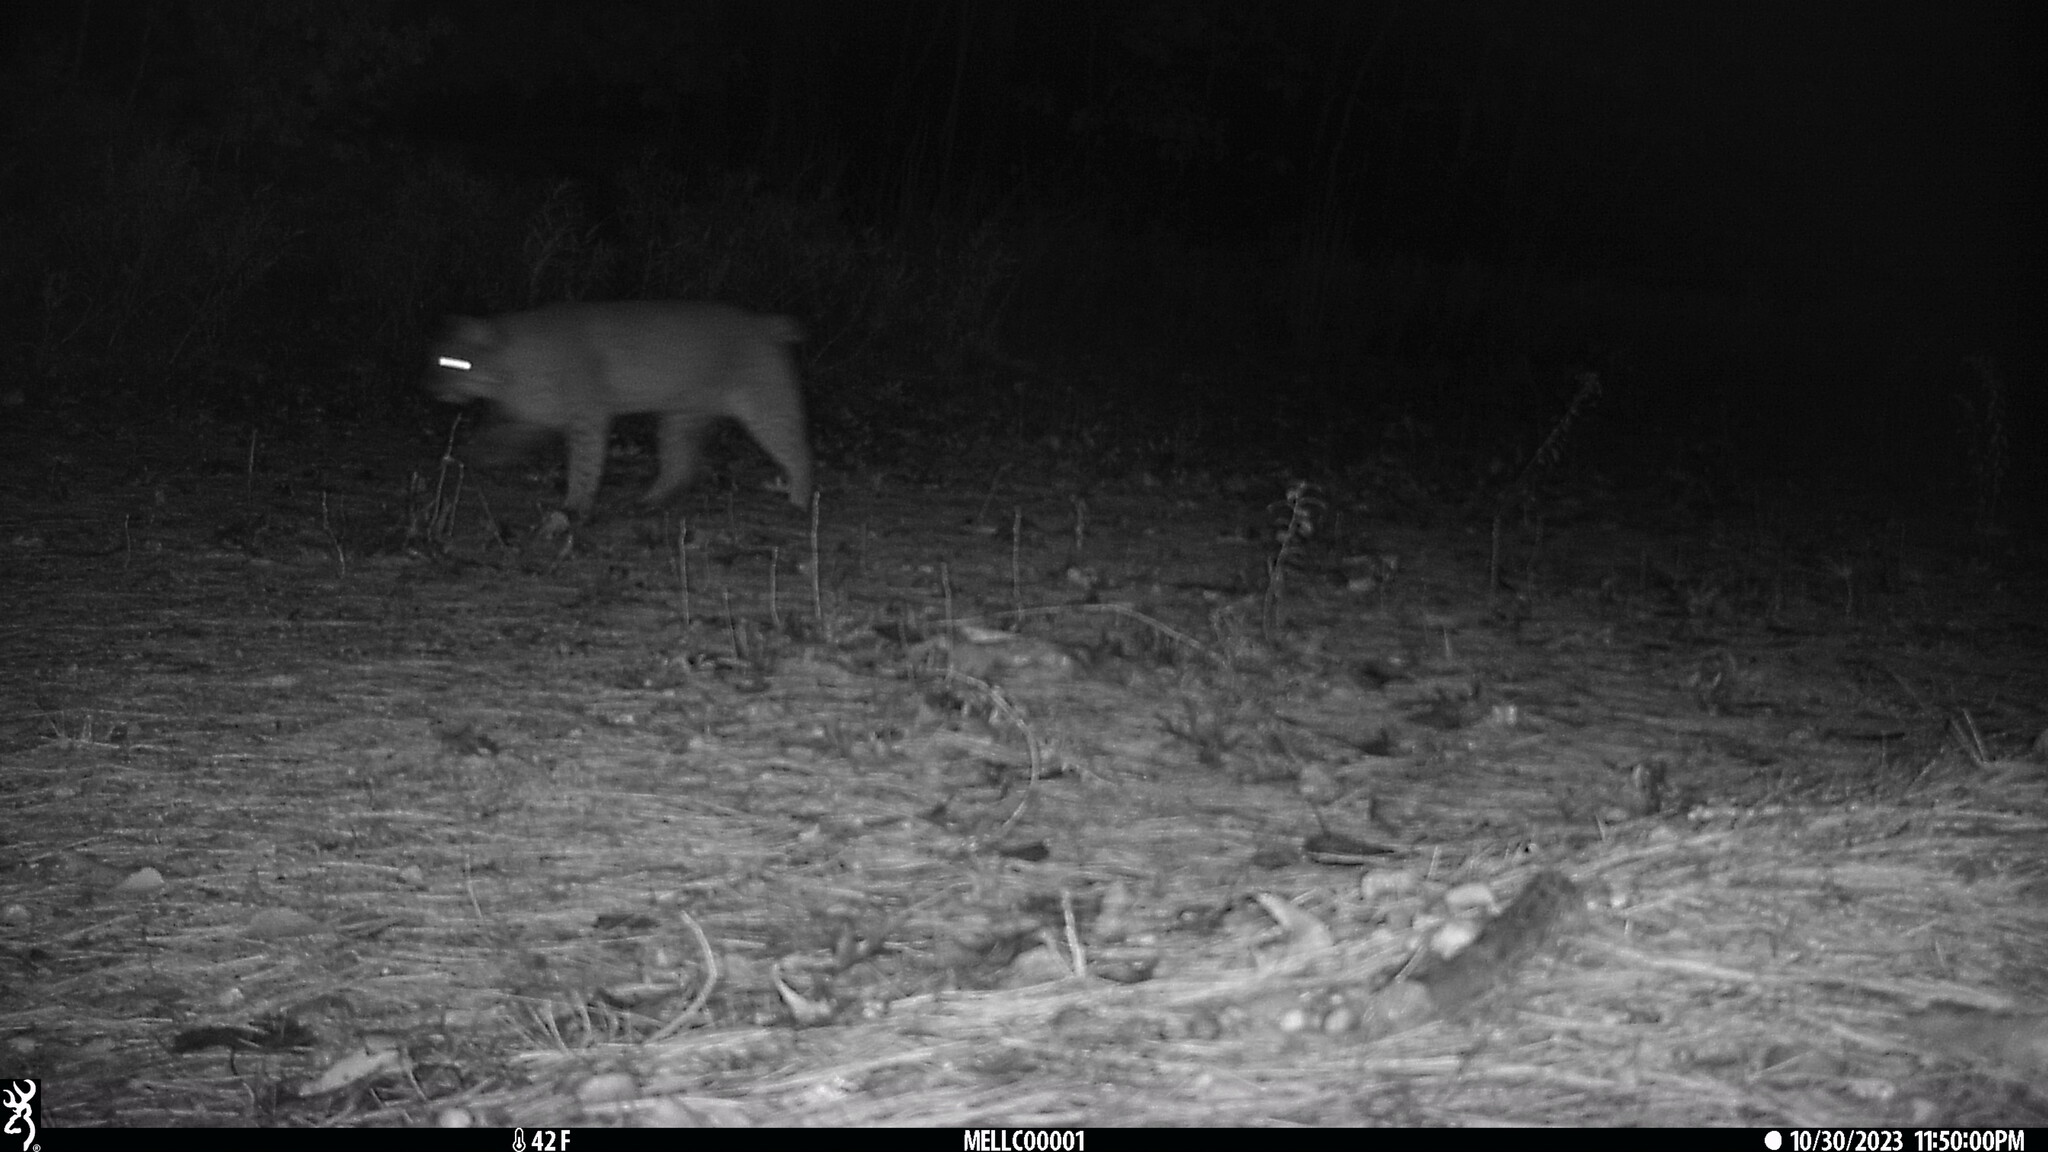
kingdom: Animalia
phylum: Chordata
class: Mammalia
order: Carnivora
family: Felidae
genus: Lynx
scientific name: Lynx rufus
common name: Bobcat
